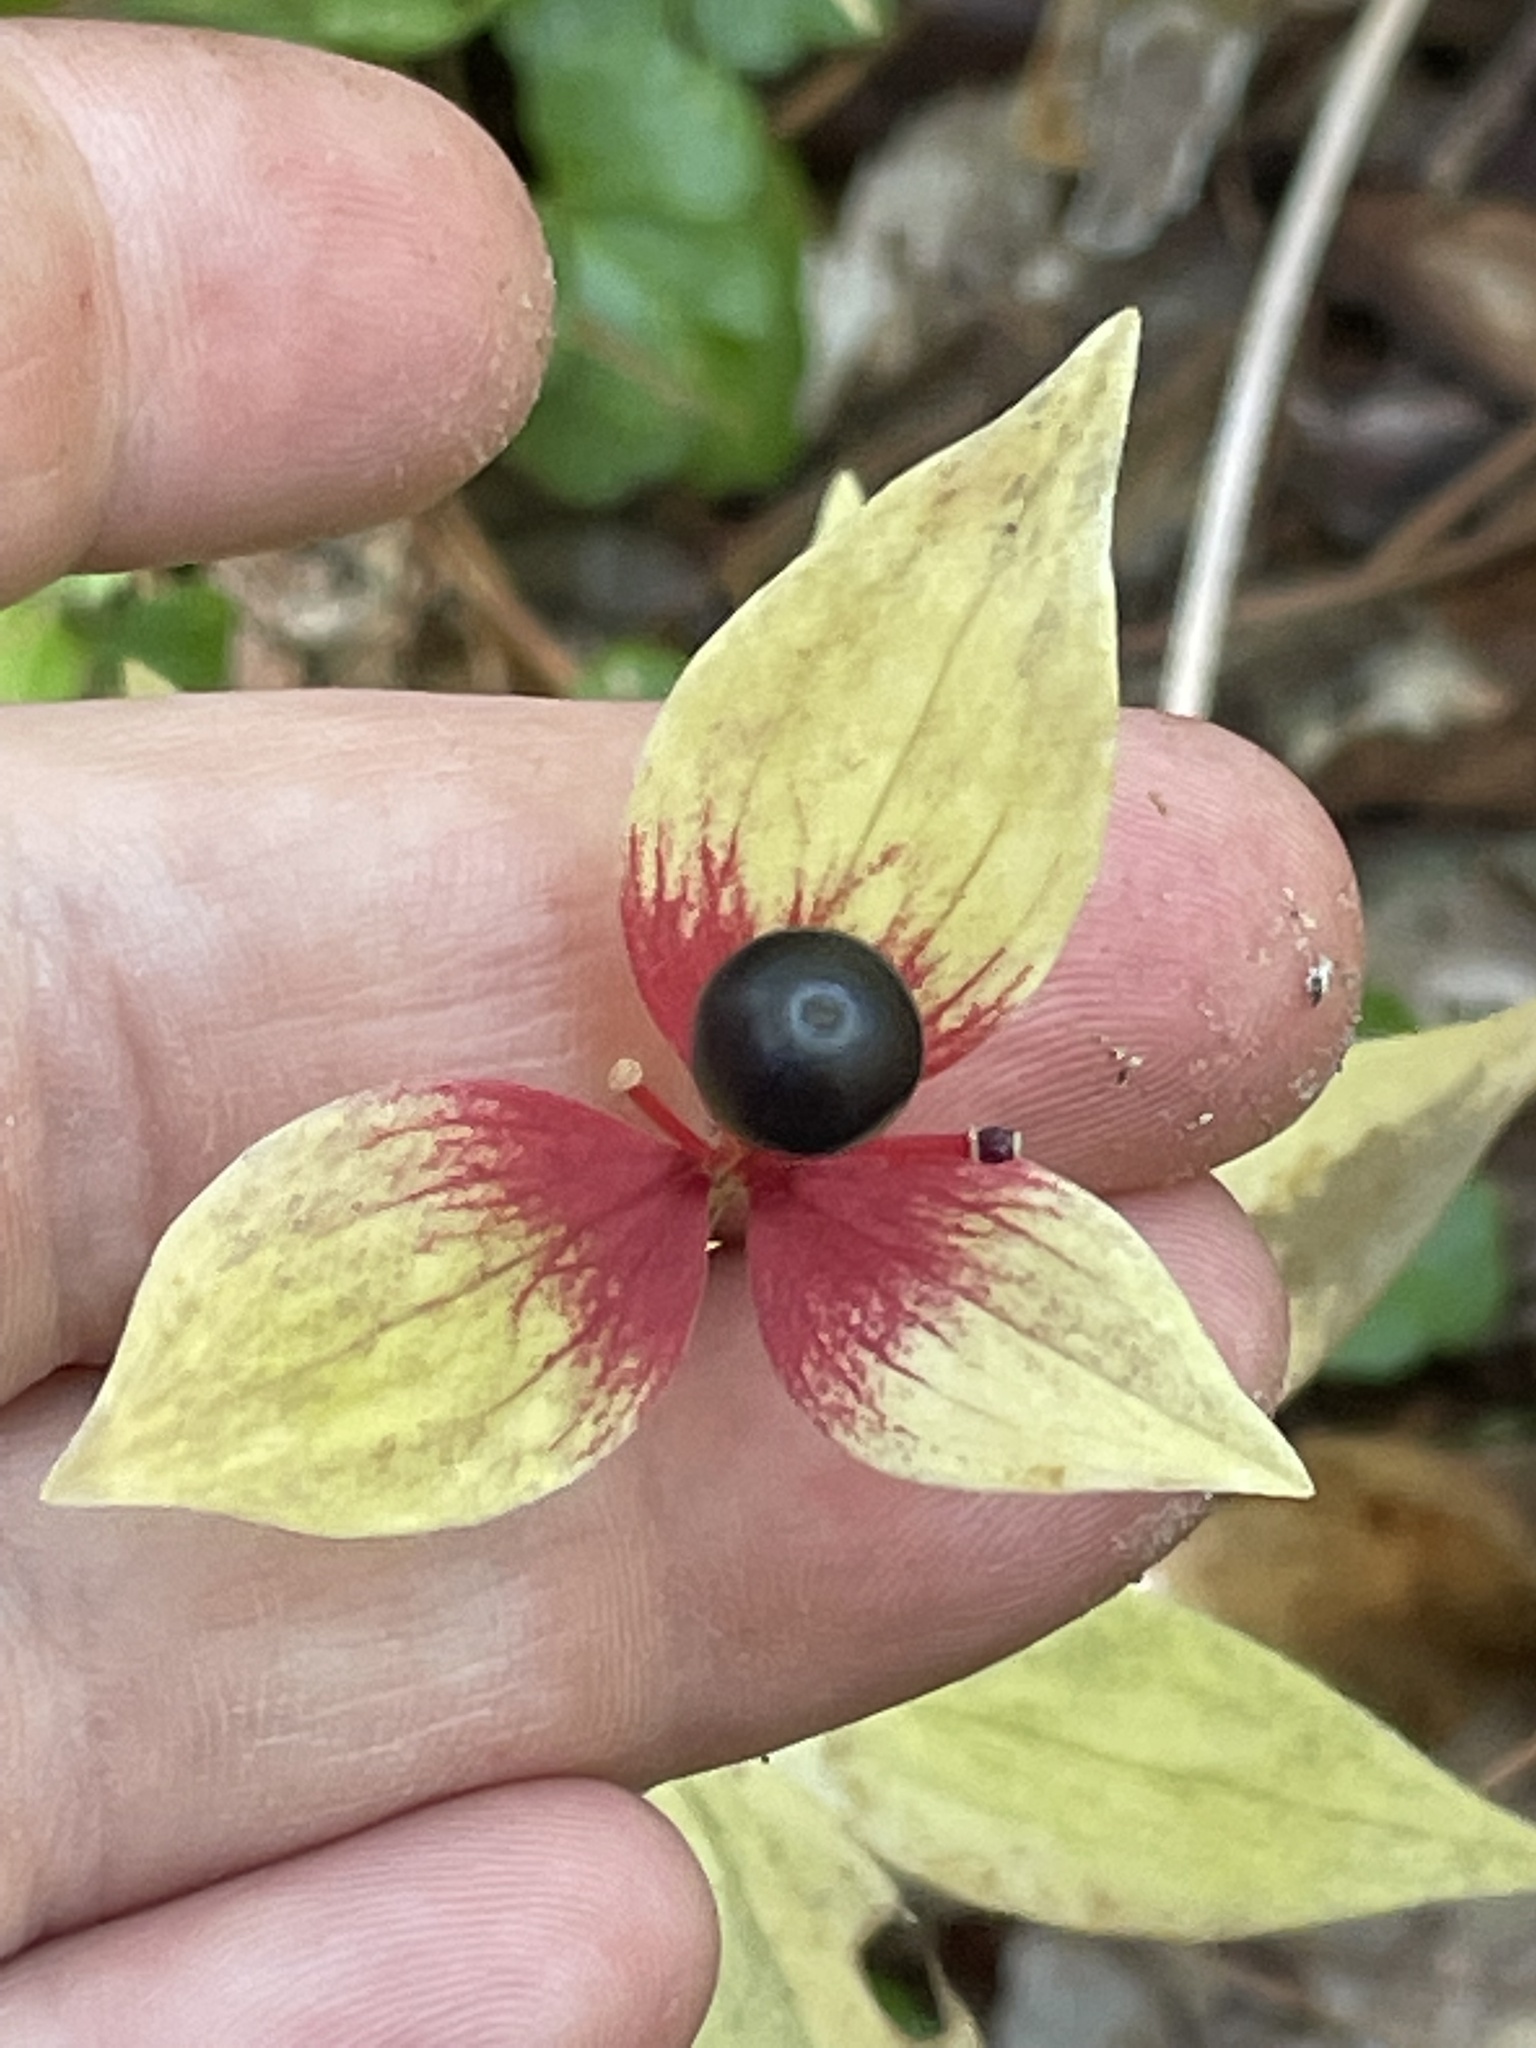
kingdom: Plantae
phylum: Tracheophyta
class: Liliopsida
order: Liliales
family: Liliaceae
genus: Medeola
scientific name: Medeola virginiana
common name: Indian cucumber-root
